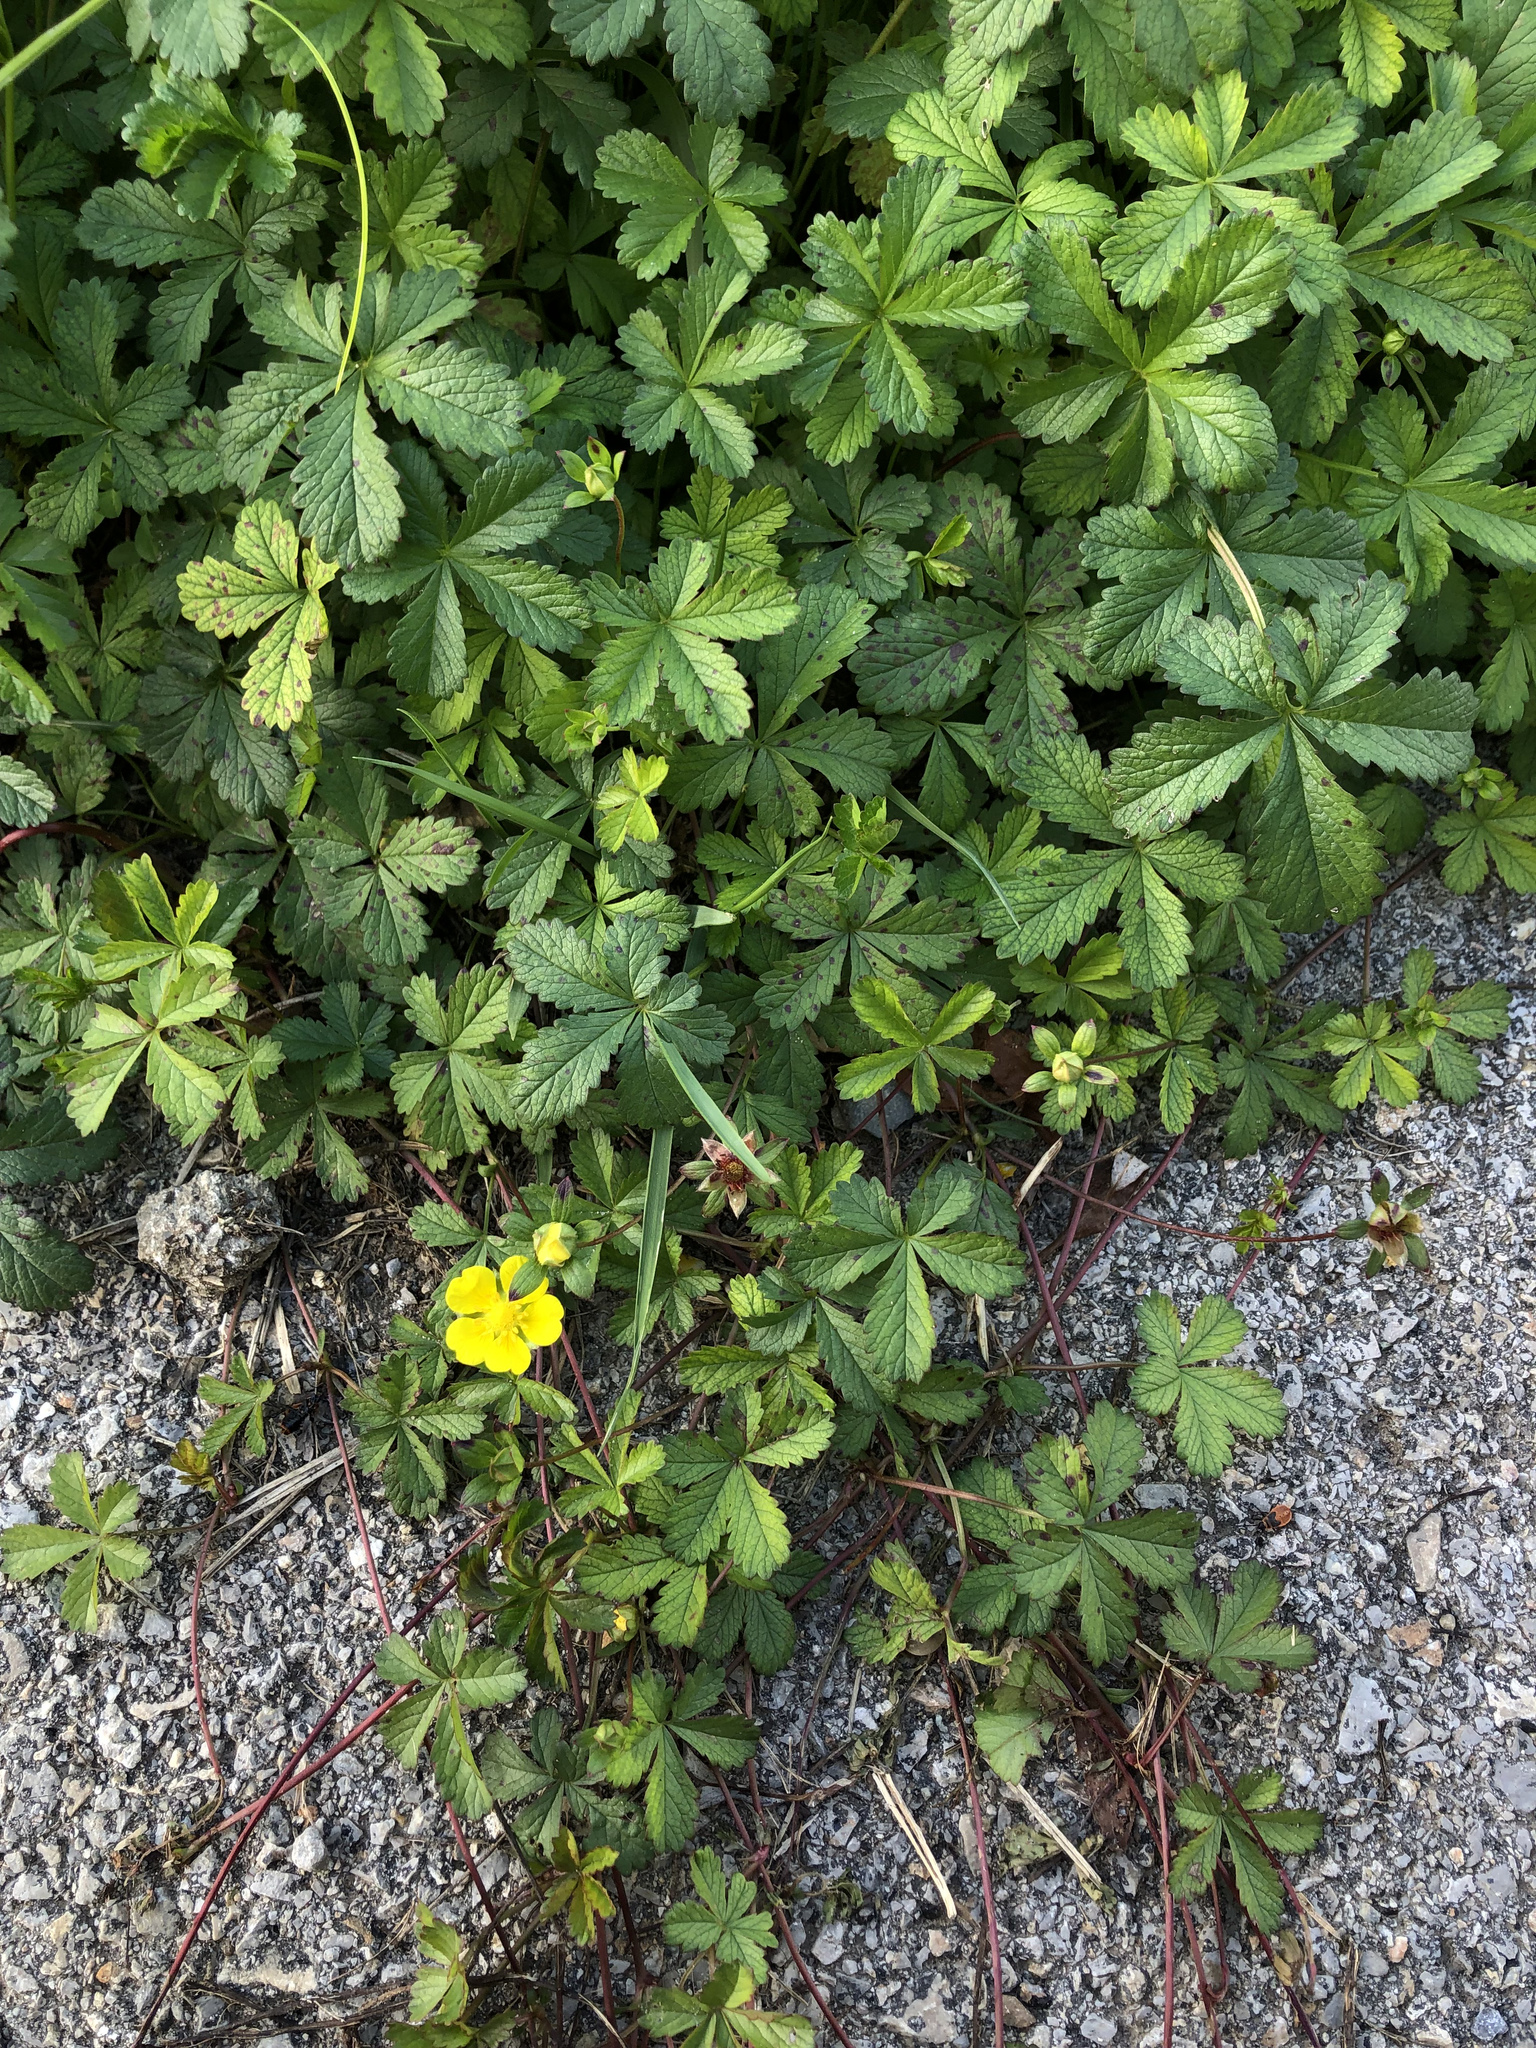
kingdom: Plantae
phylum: Tracheophyta
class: Magnoliopsida
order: Rosales
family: Rosaceae
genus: Potentilla
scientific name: Potentilla reptans
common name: Creeping cinquefoil
